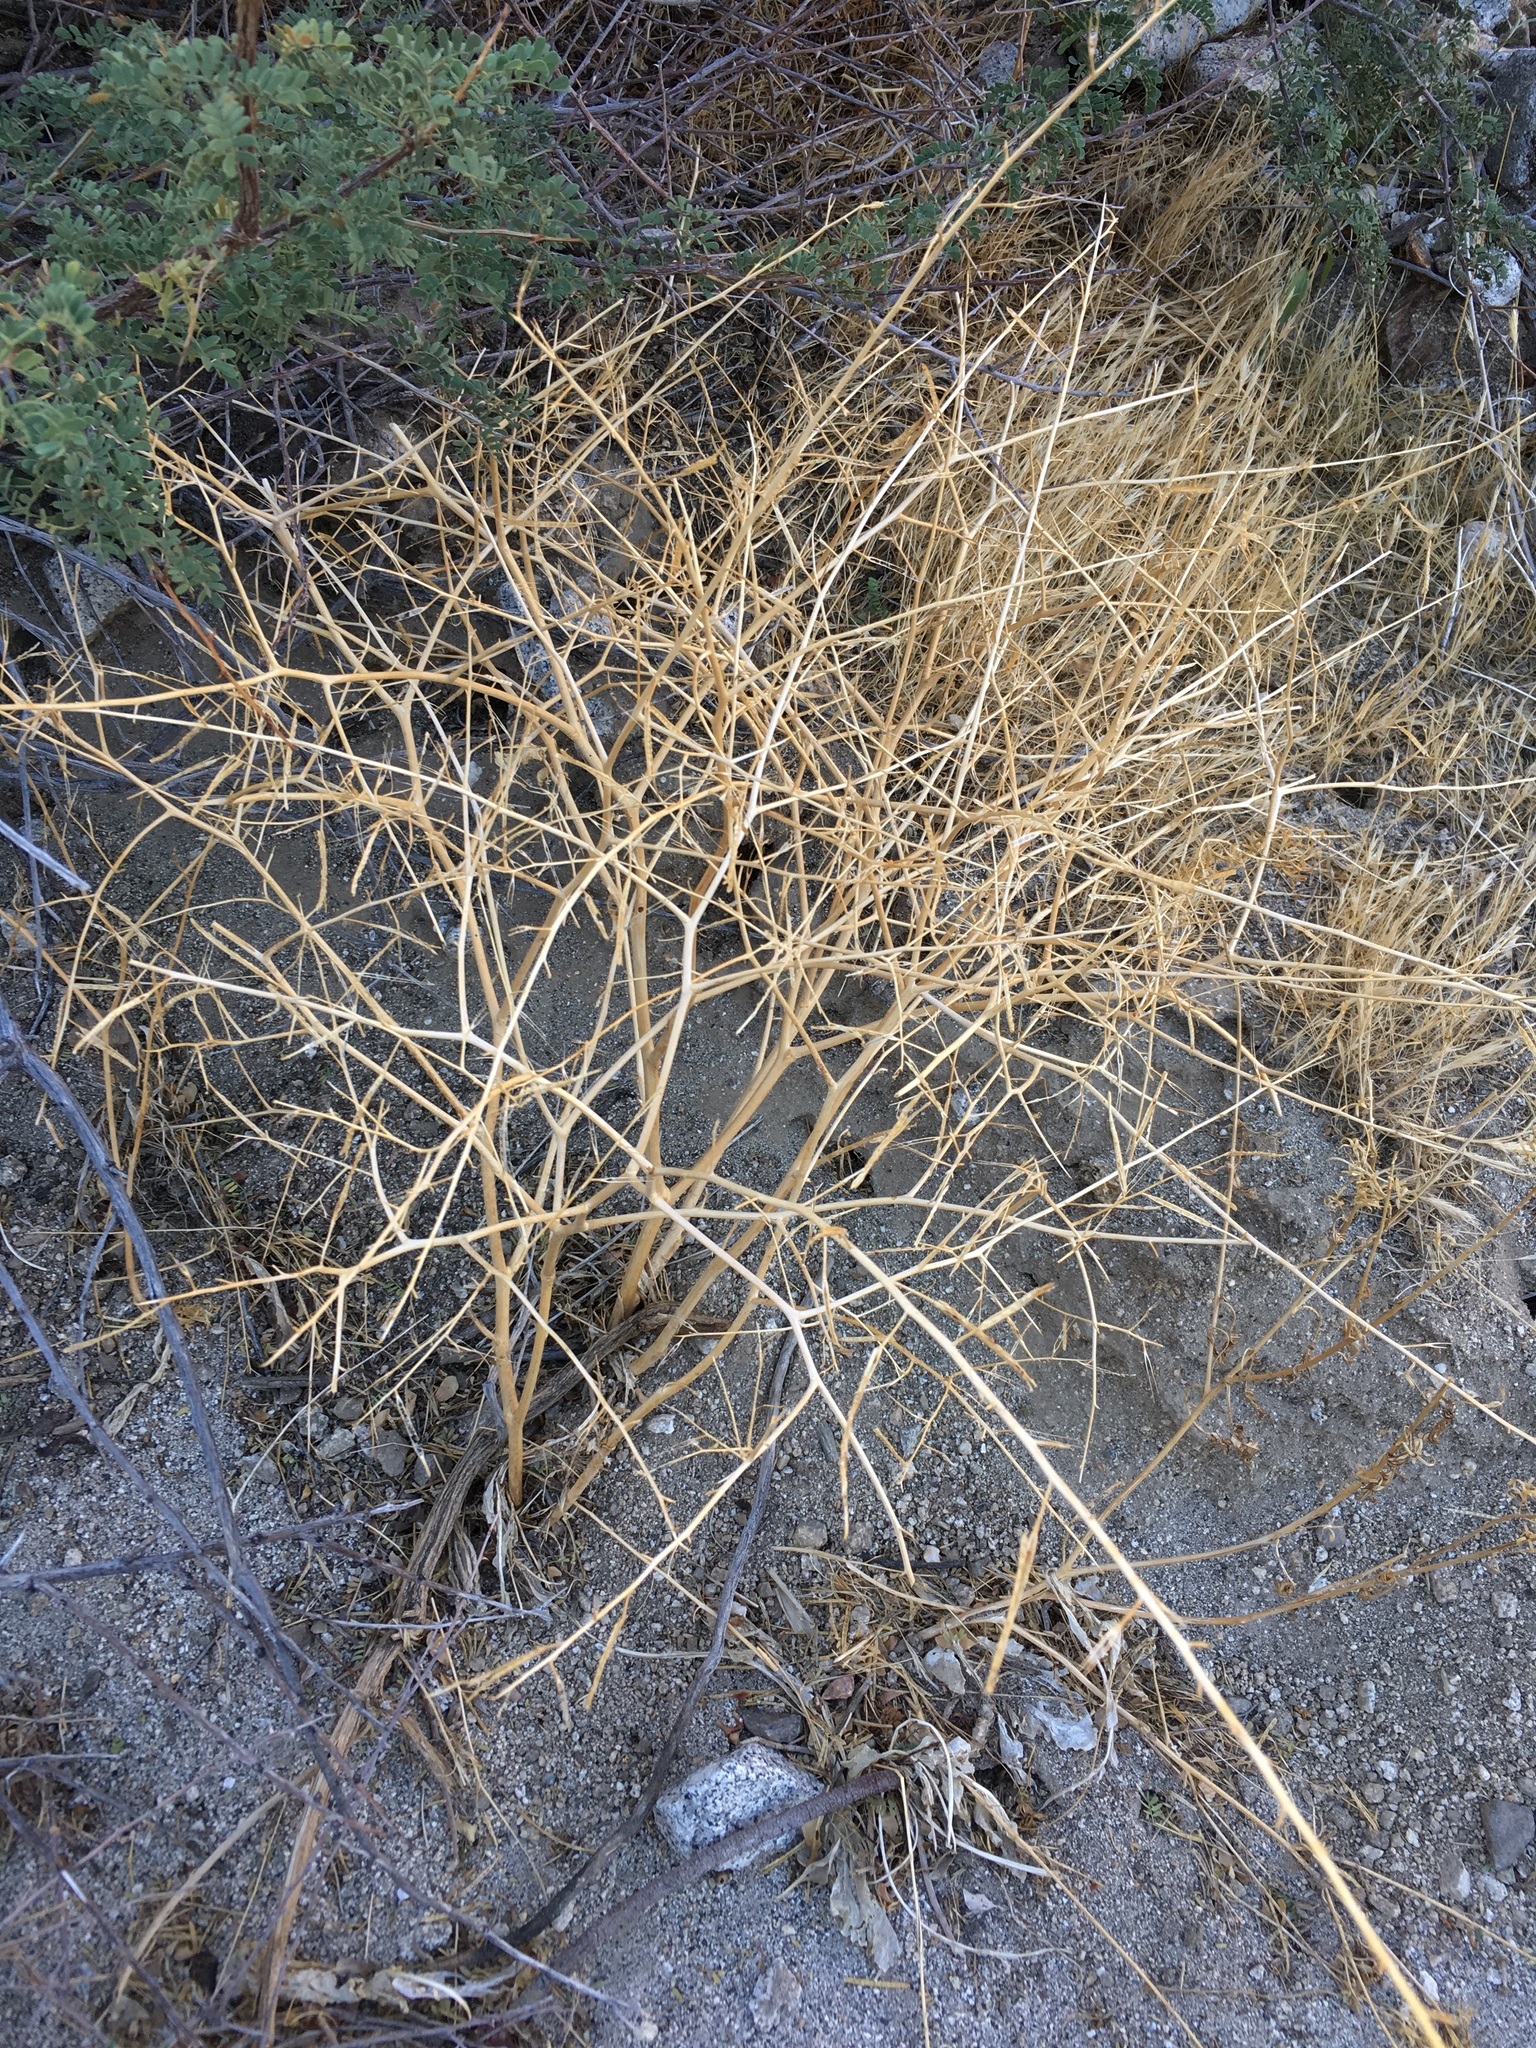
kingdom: Plantae
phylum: Tracheophyta
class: Magnoliopsida
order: Brassicales
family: Brassicaceae
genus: Brassica
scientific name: Brassica tournefortii
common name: Pale cabbage
